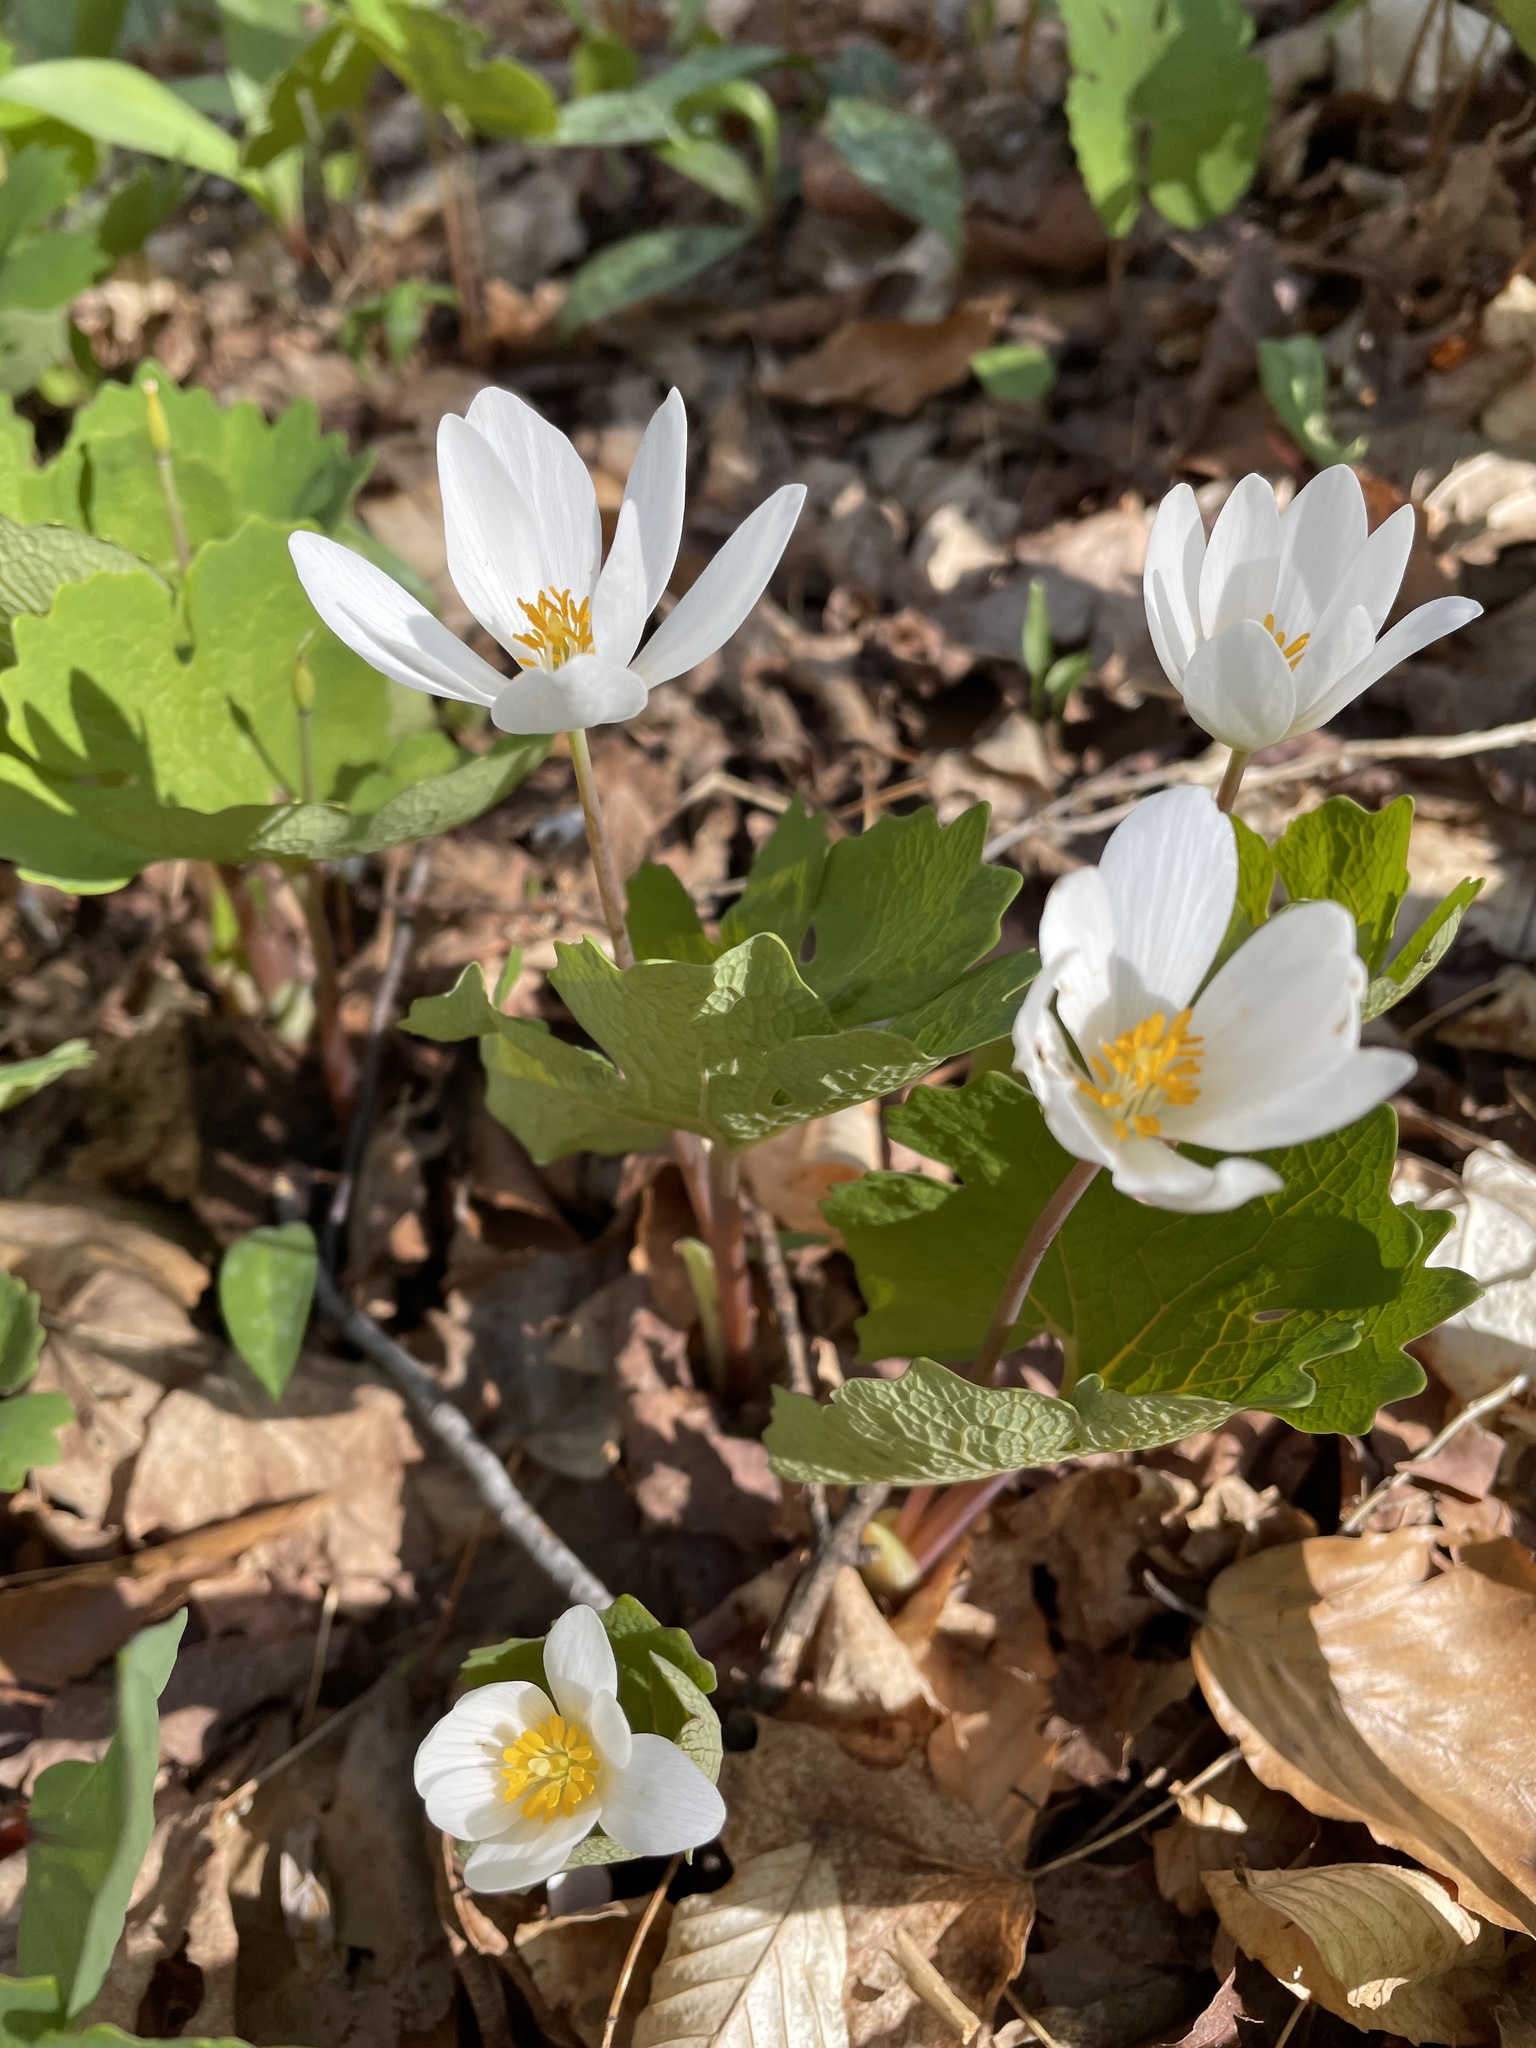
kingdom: Plantae
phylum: Tracheophyta
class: Magnoliopsida
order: Ranunculales
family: Papaveraceae
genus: Sanguinaria
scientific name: Sanguinaria canadensis
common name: Bloodroot
